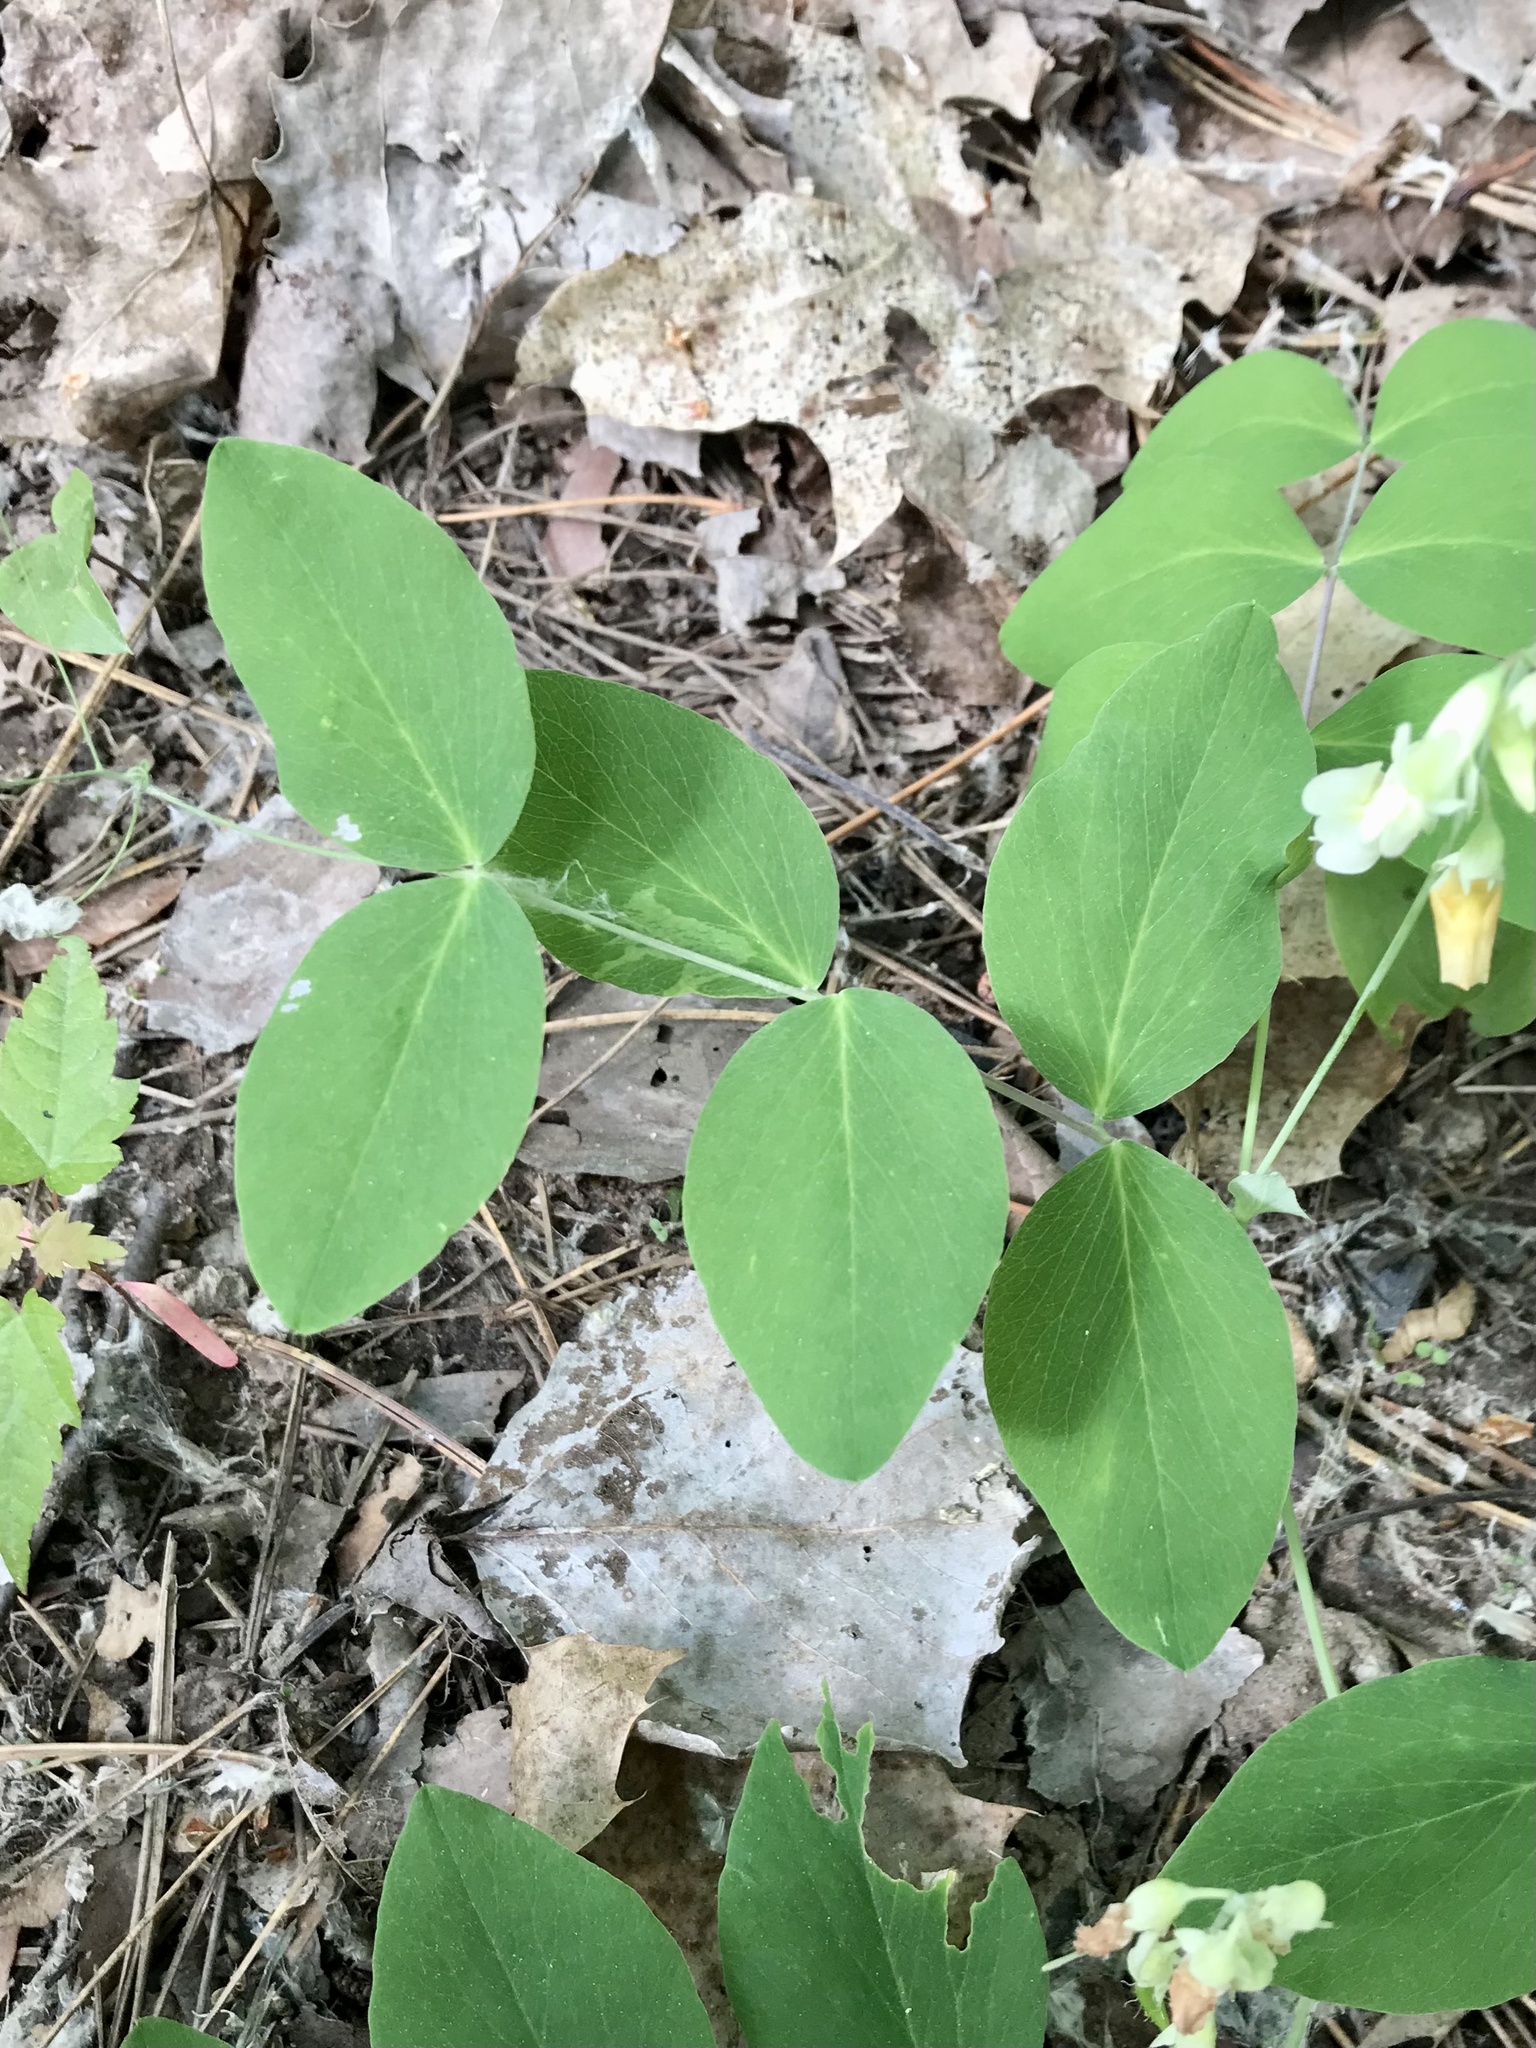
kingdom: Plantae
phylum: Tracheophyta
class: Magnoliopsida
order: Fabales
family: Fabaceae
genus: Lathyrus
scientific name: Lathyrus ochroleucus
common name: Pale vetchling
